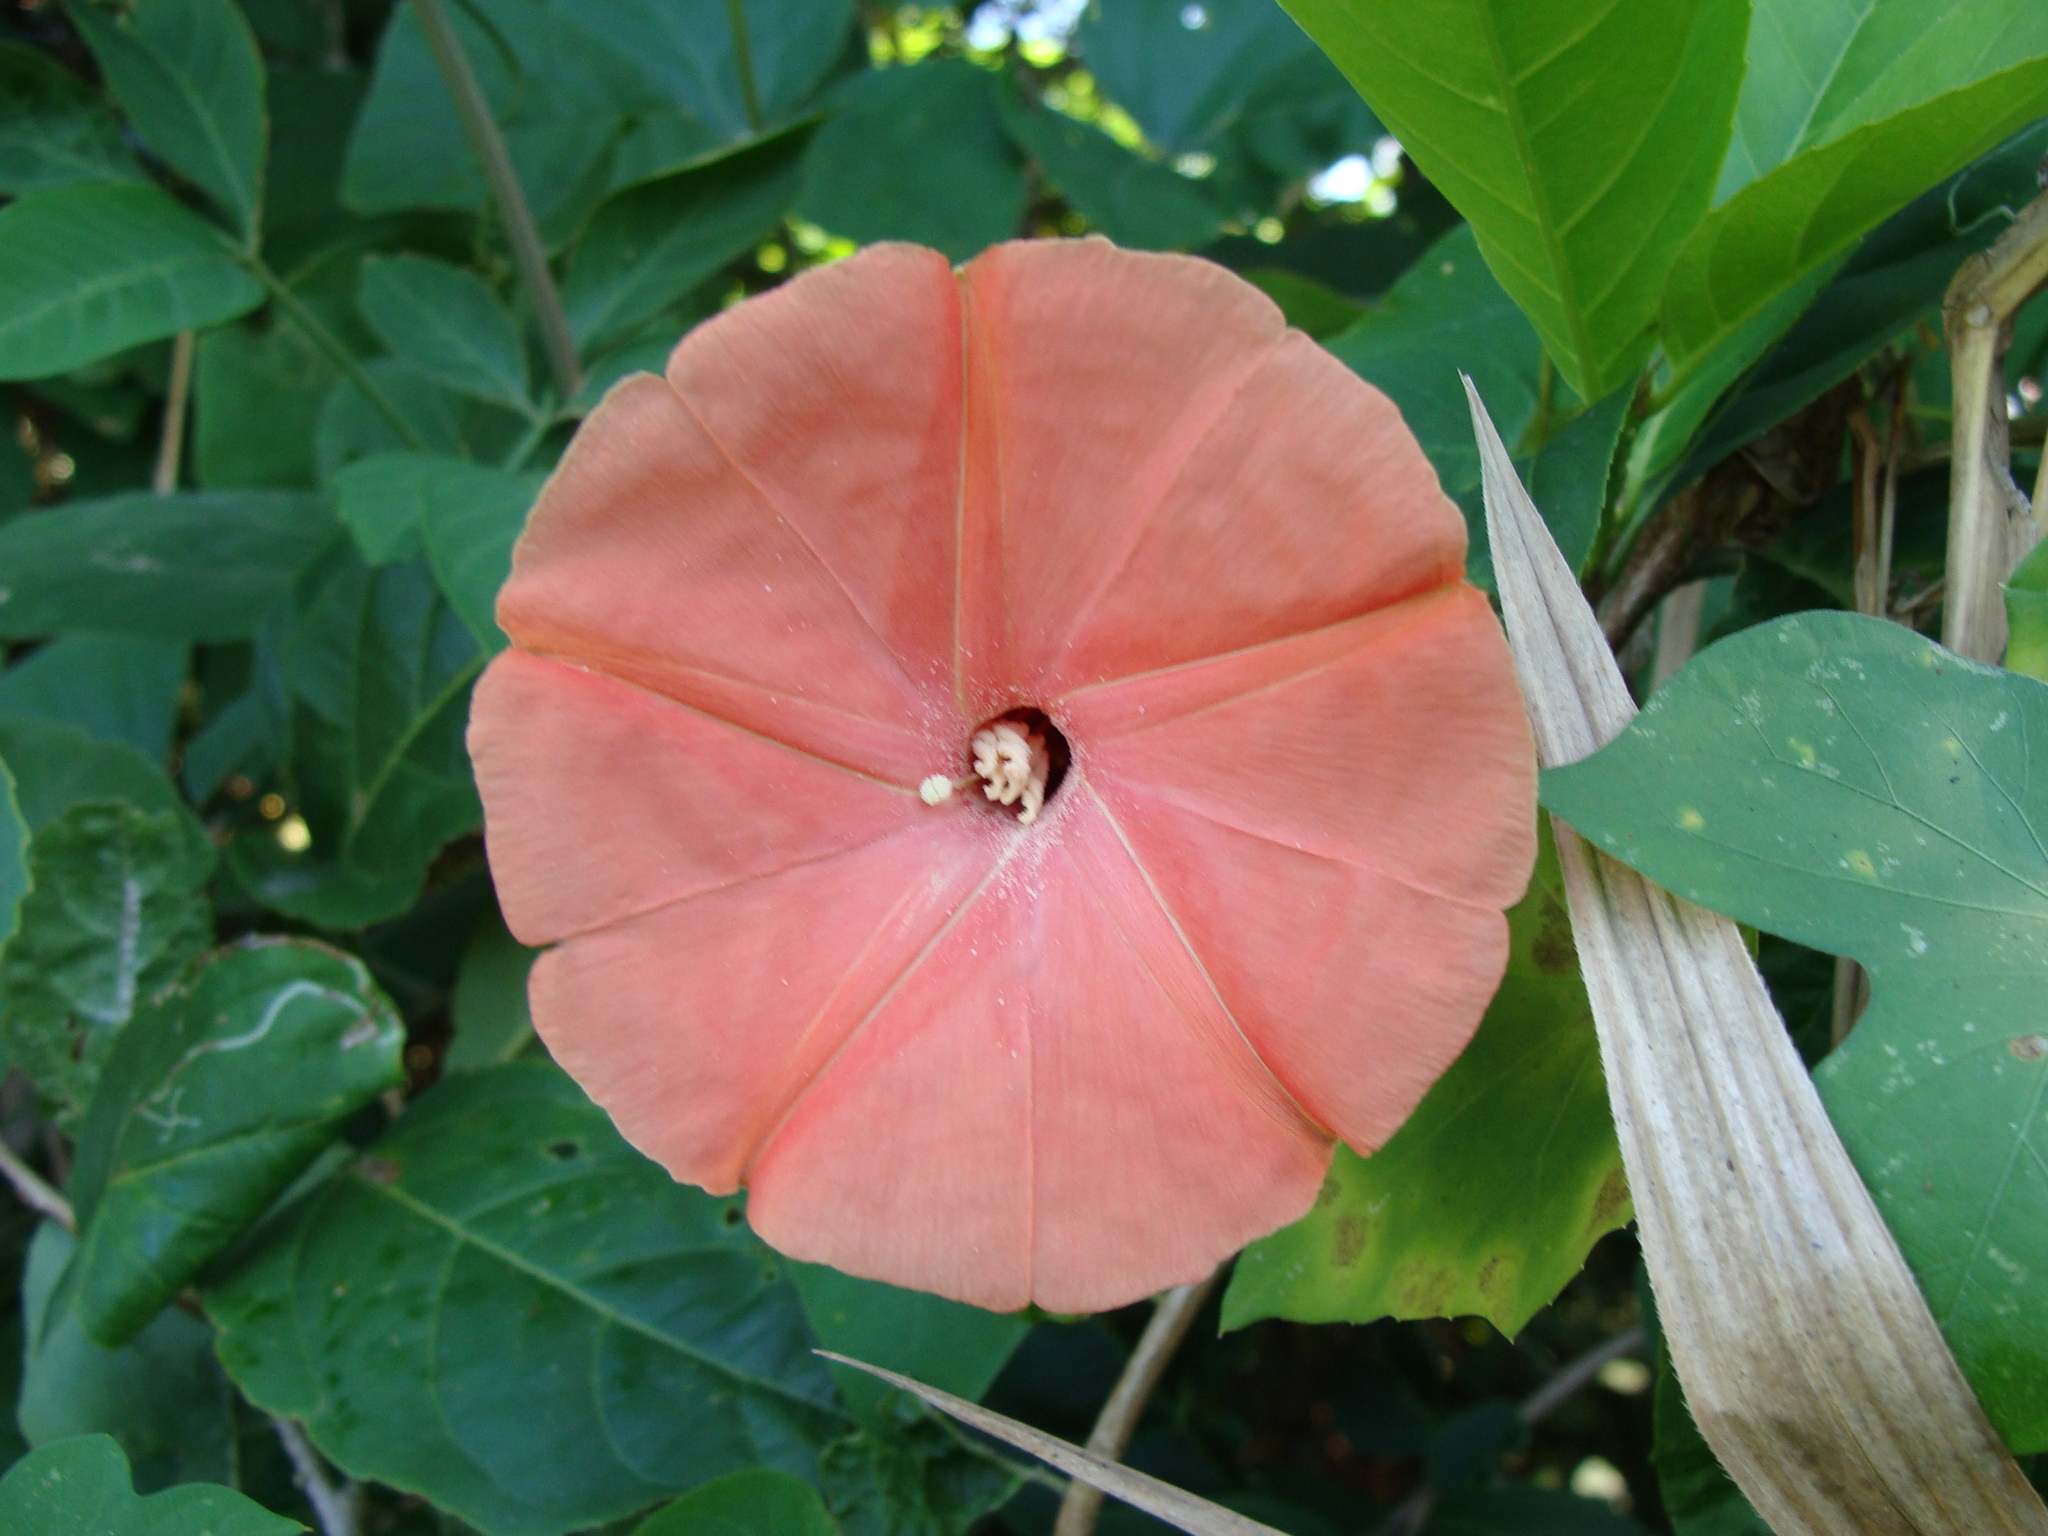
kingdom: Plantae
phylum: Tracheophyta
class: Magnoliopsida
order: Solanales
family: Convolvulaceae
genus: Operculina
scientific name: Operculina pteripes
